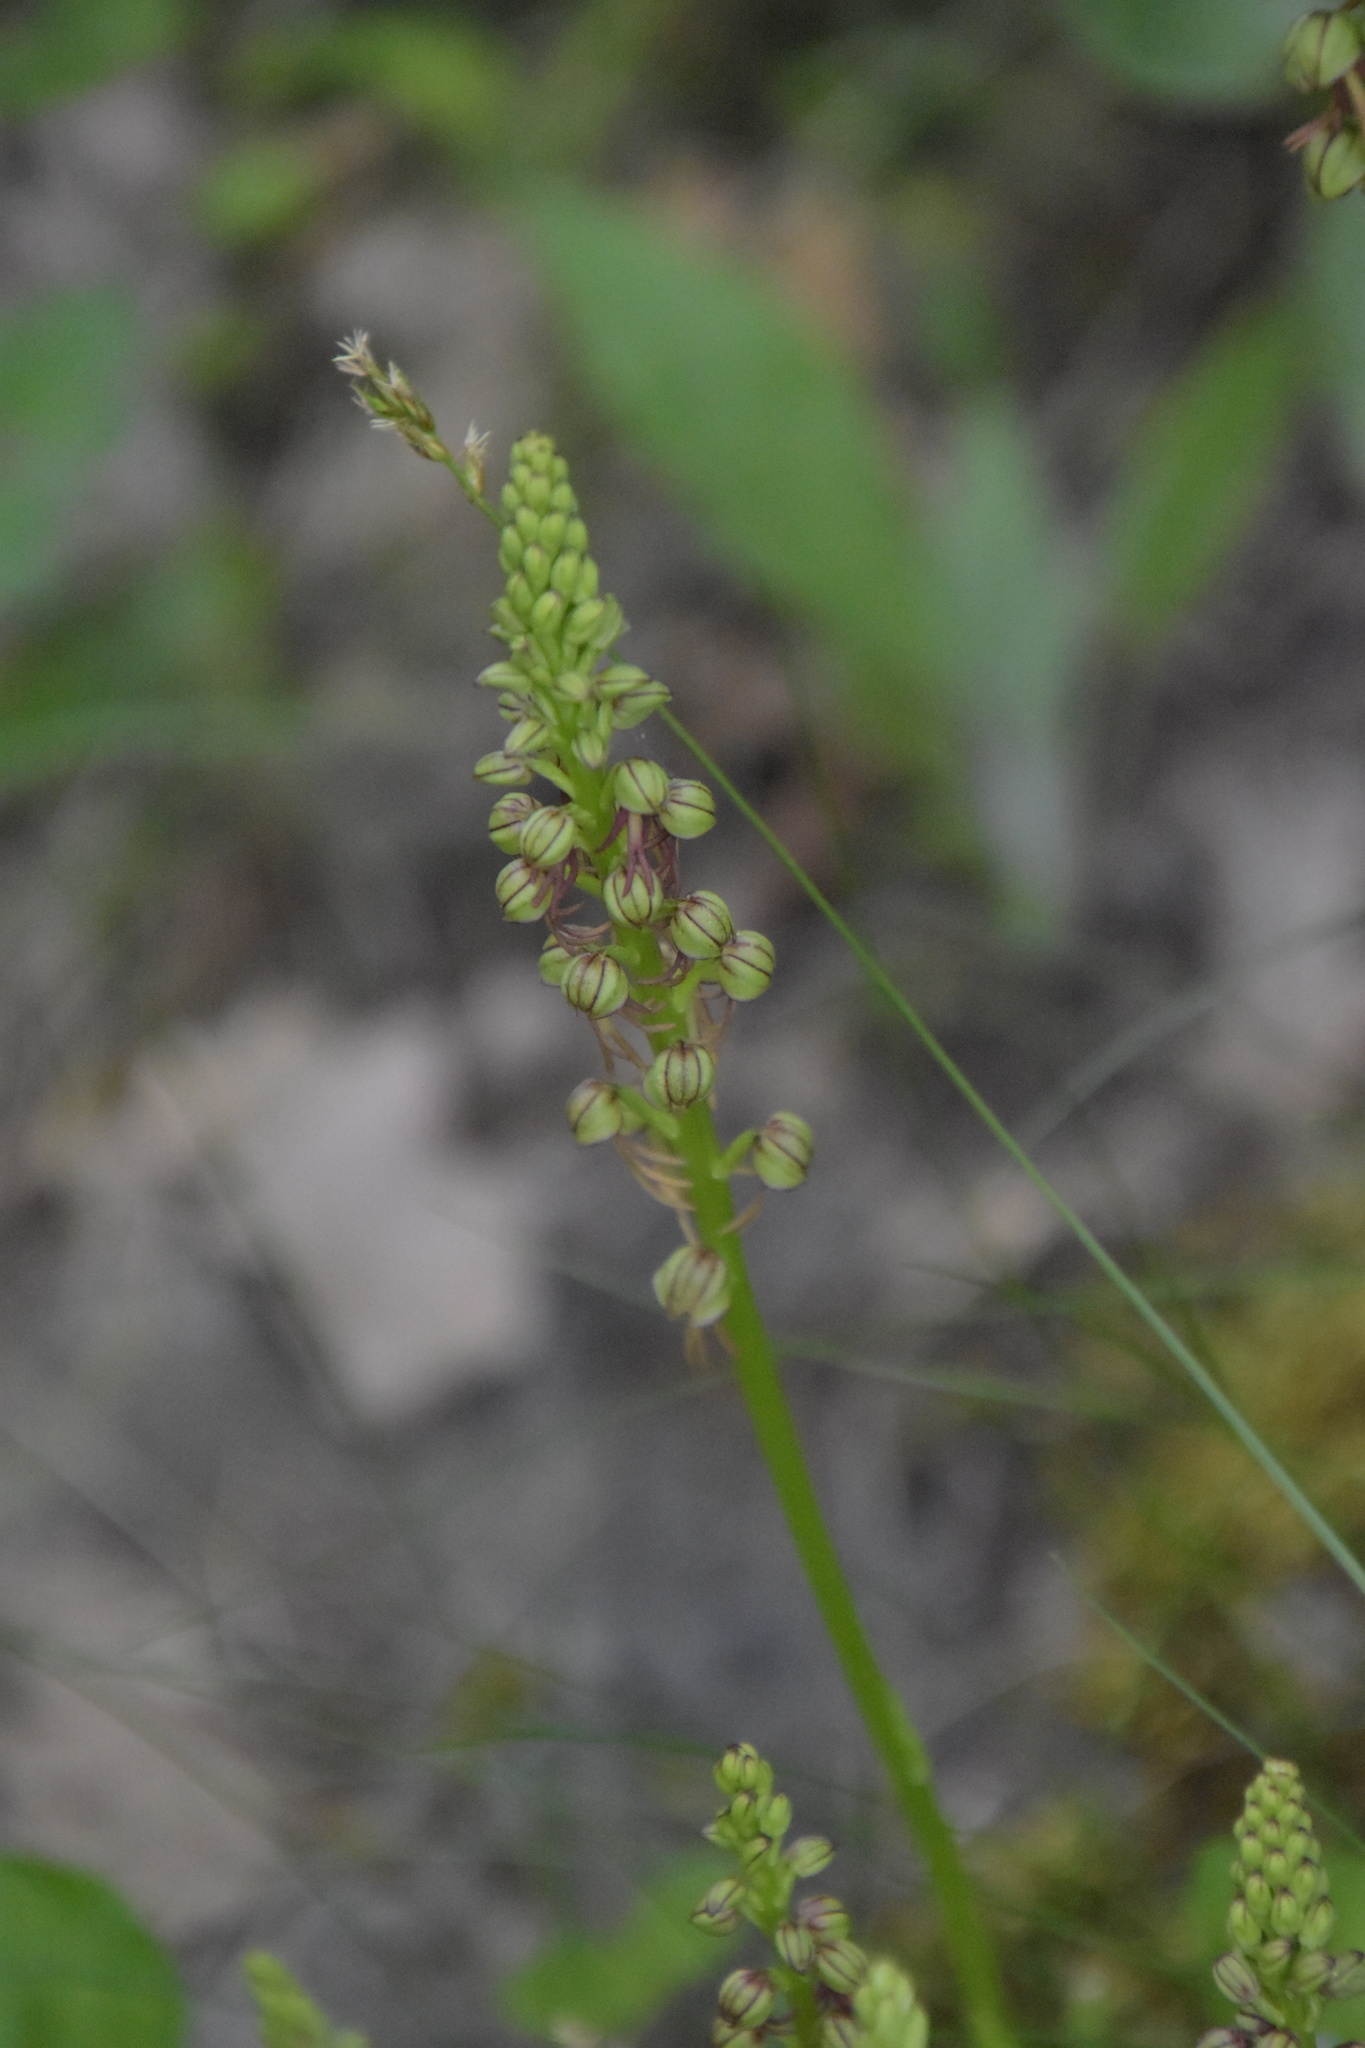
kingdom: Plantae
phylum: Tracheophyta
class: Liliopsida
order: Asparagales
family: Orchidaceae
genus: Orchis
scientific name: Orchis anthropophora
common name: Man orchid
